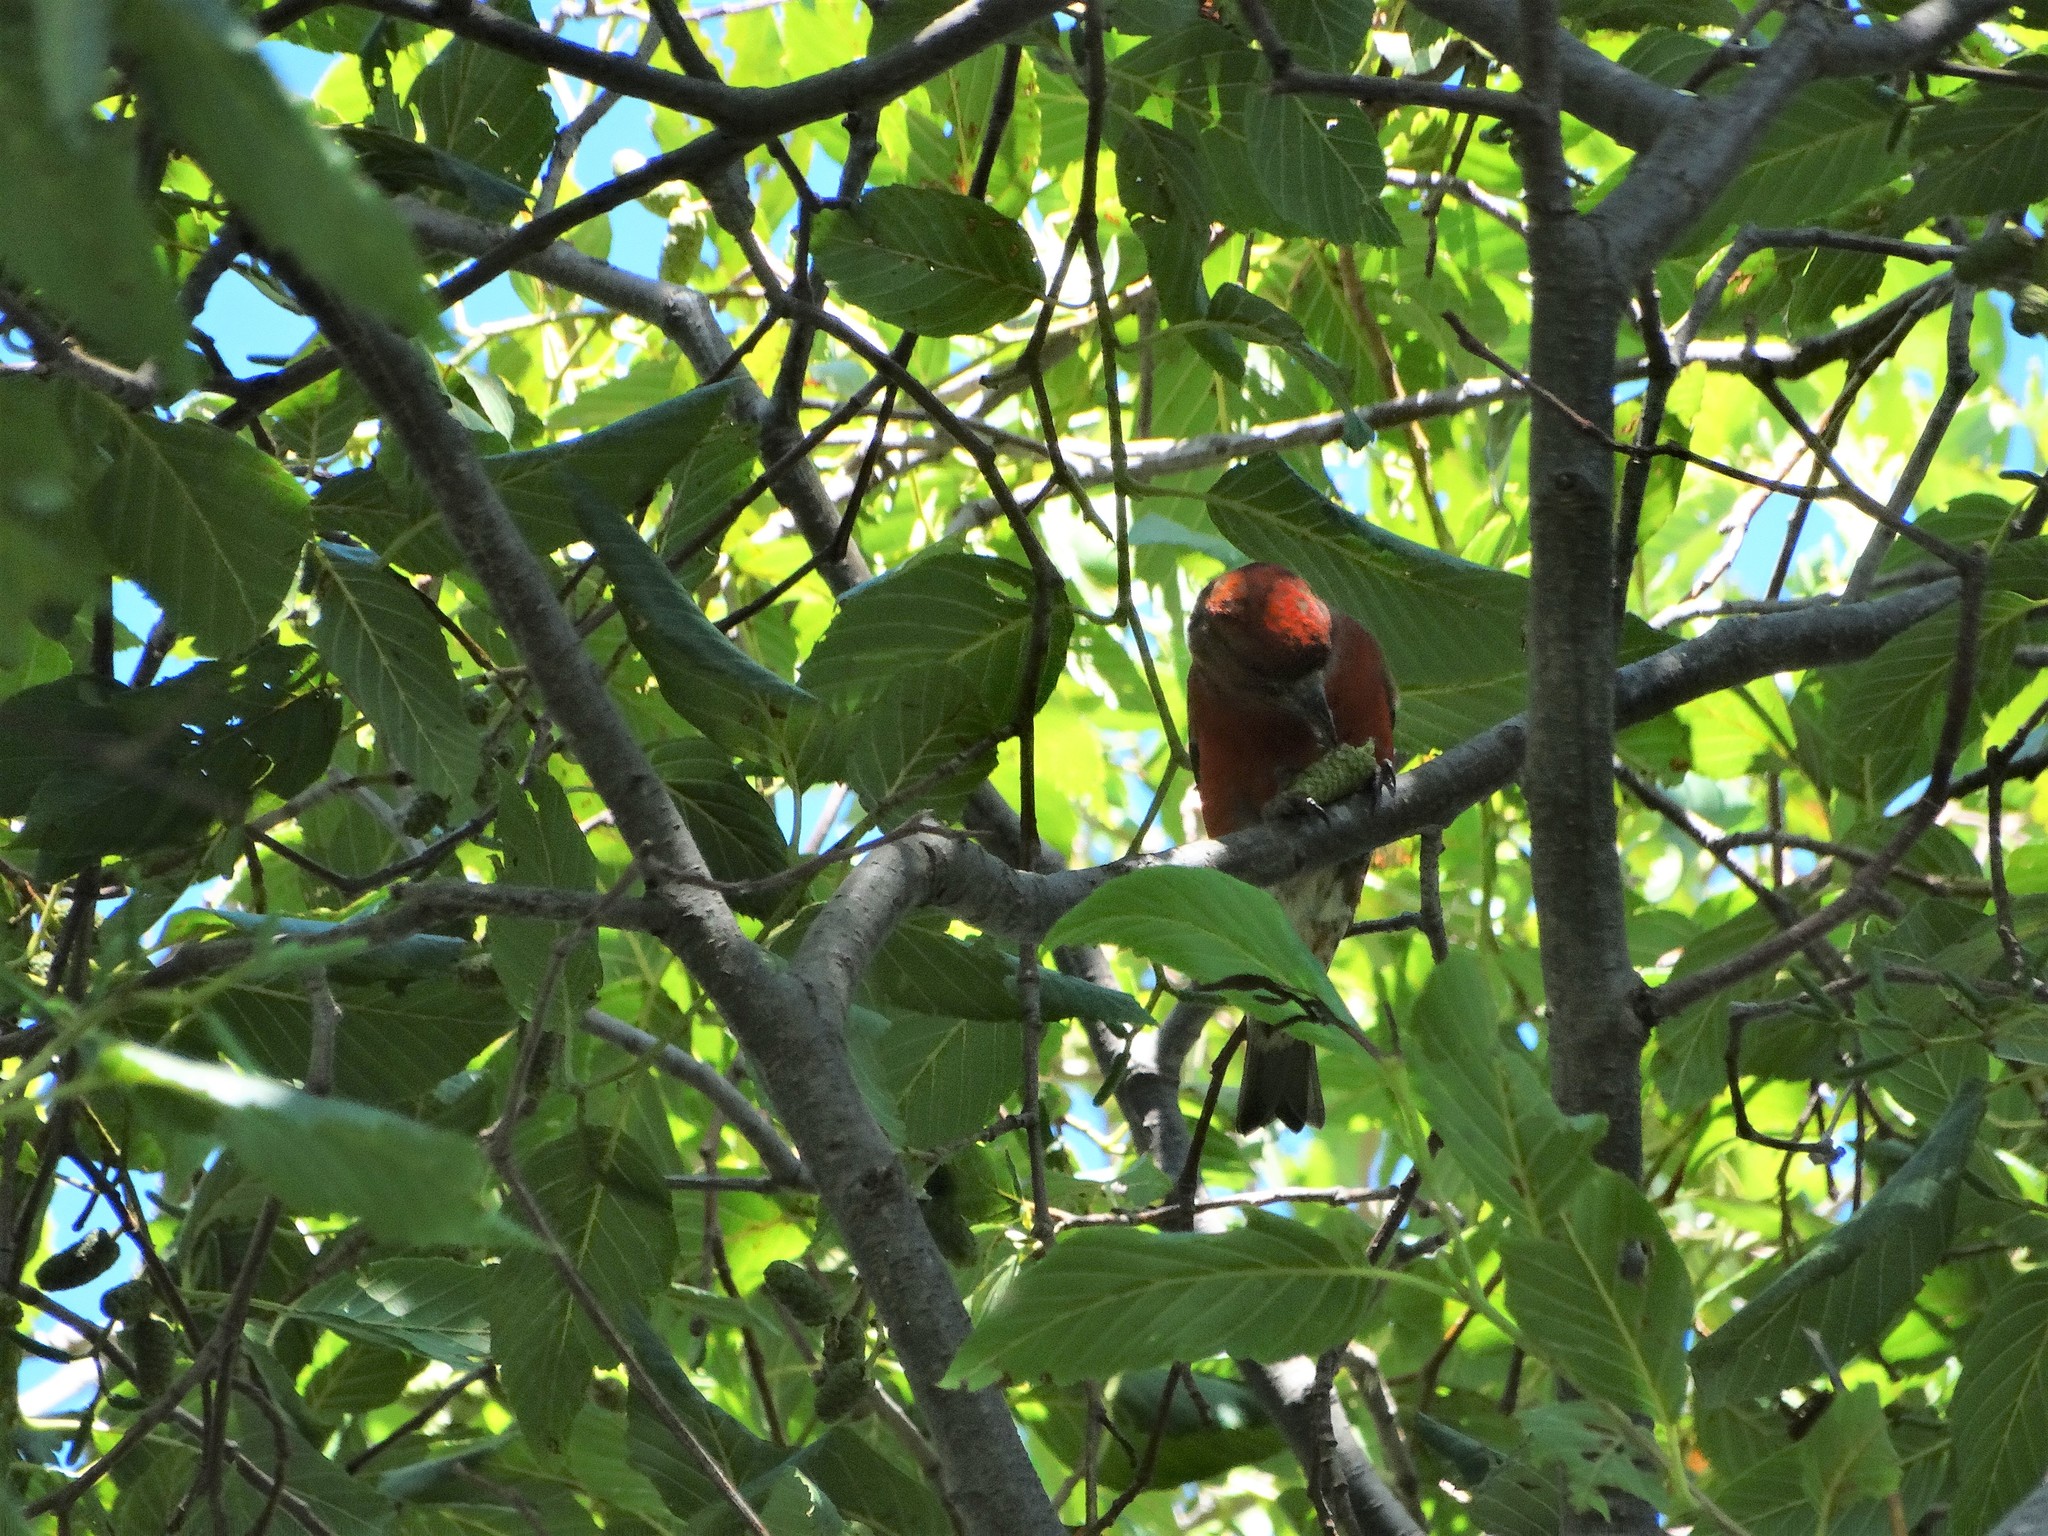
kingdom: Animalia
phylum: Chordata
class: Aves
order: Passeriformes
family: Fringillidae
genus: Loxia
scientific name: Loxia curvirostra
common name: Red crossbill
